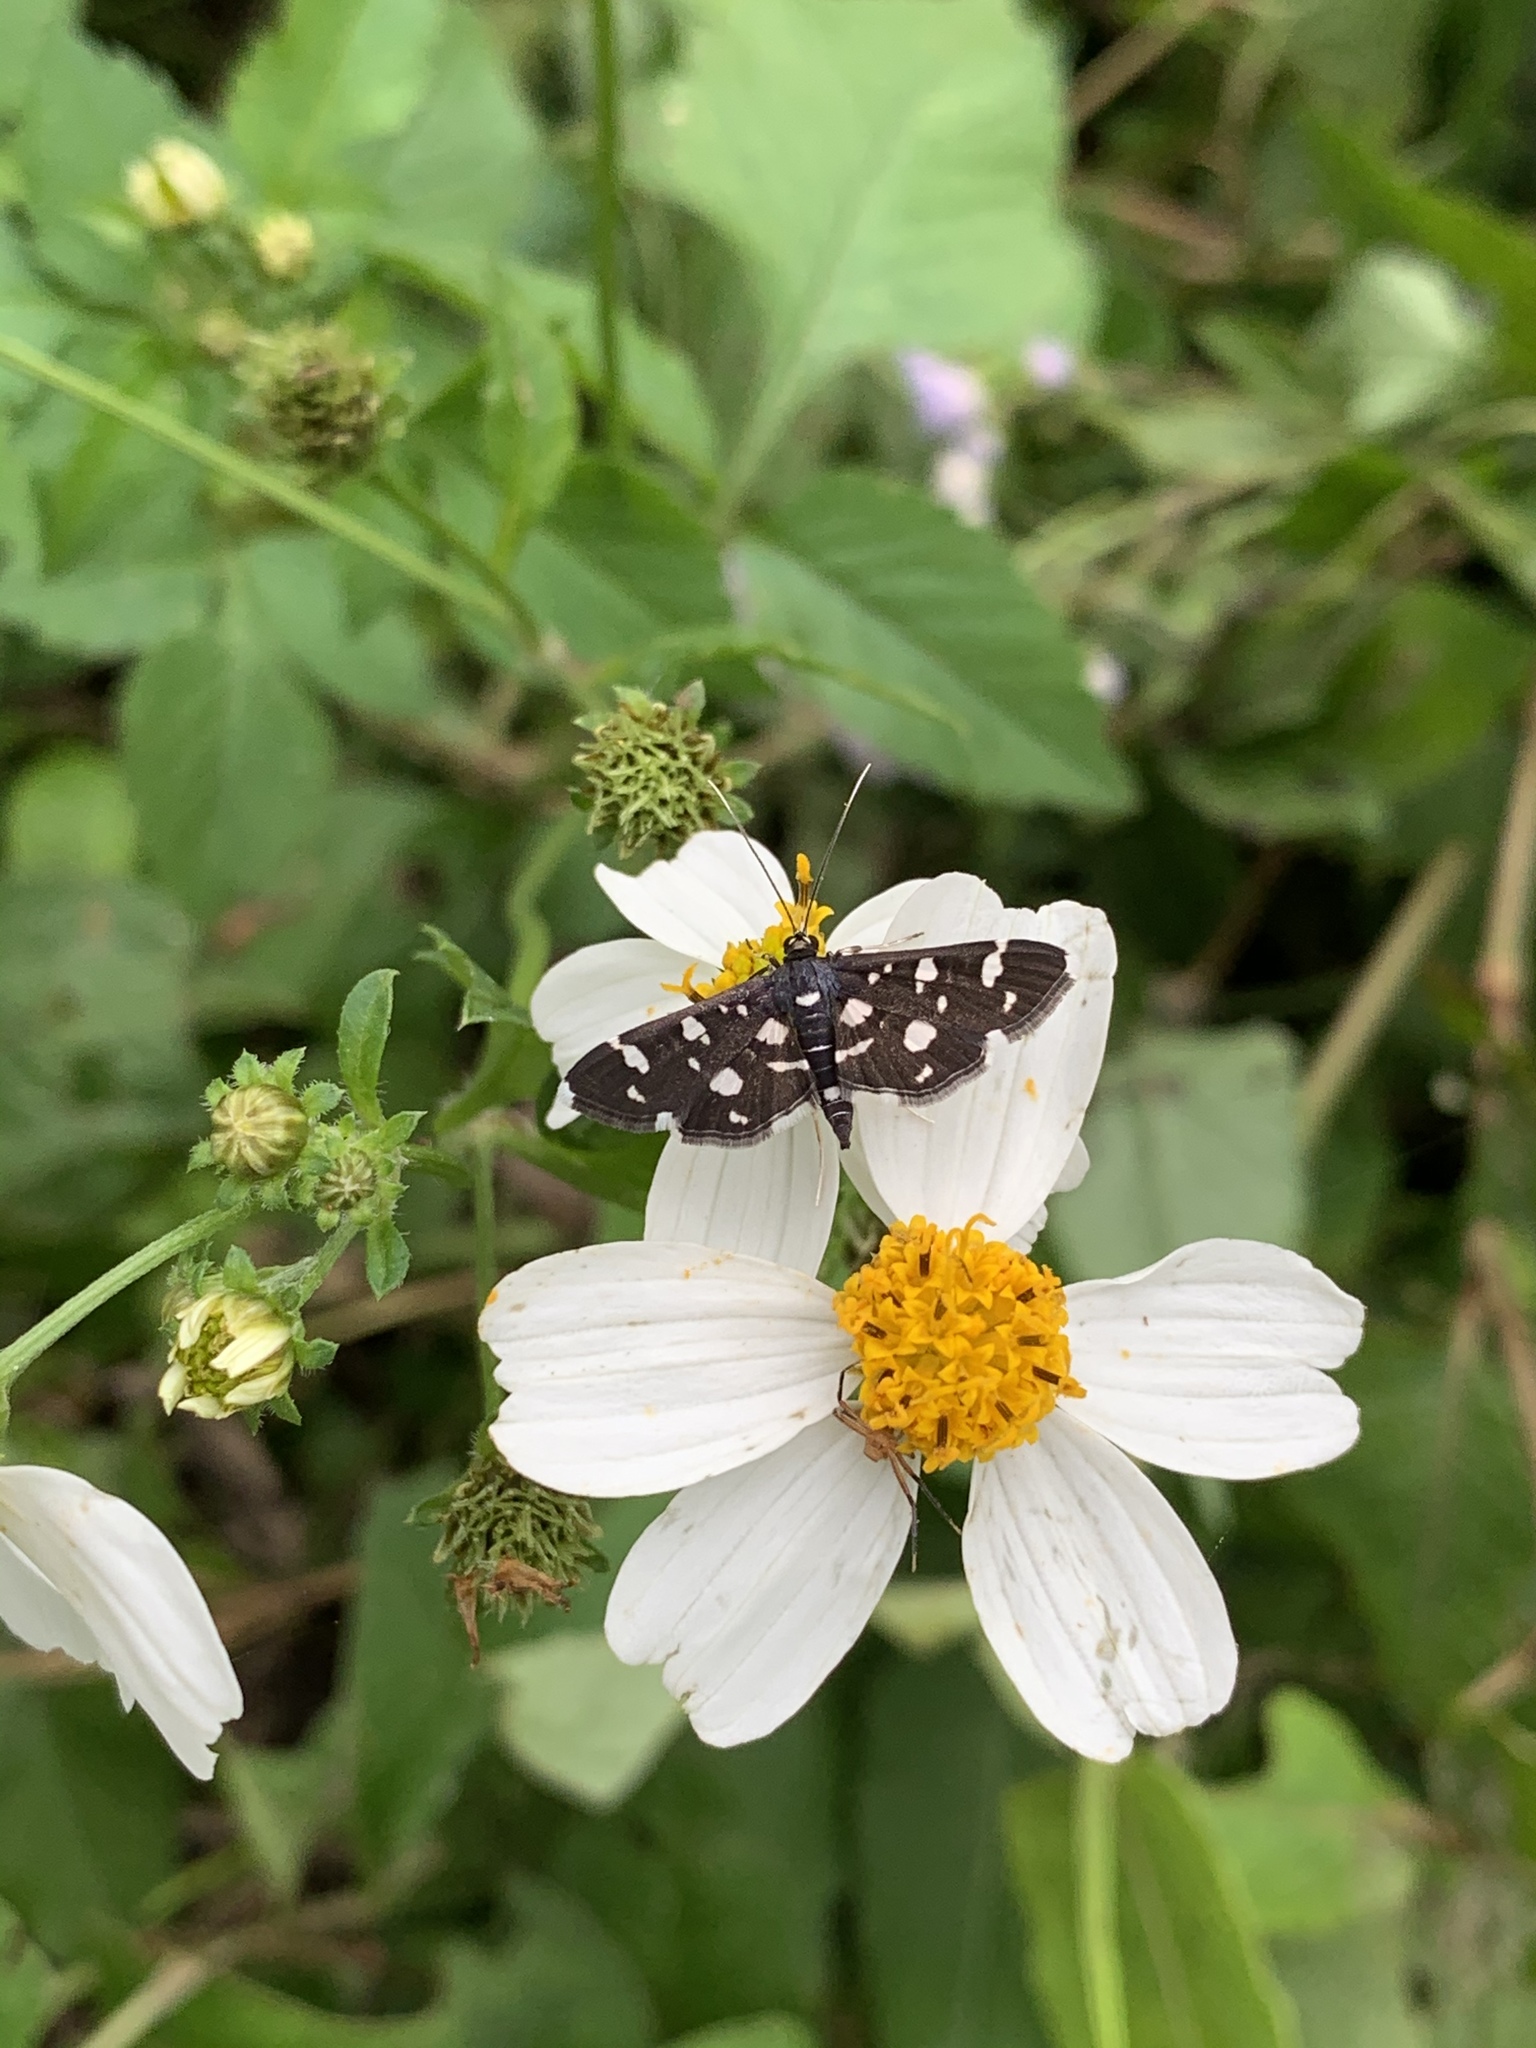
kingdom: Animalia
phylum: Arthropoda
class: Insecta
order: Lepidoptera
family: Crambidae
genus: Bocchoris
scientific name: Bocchoris inspersalis
